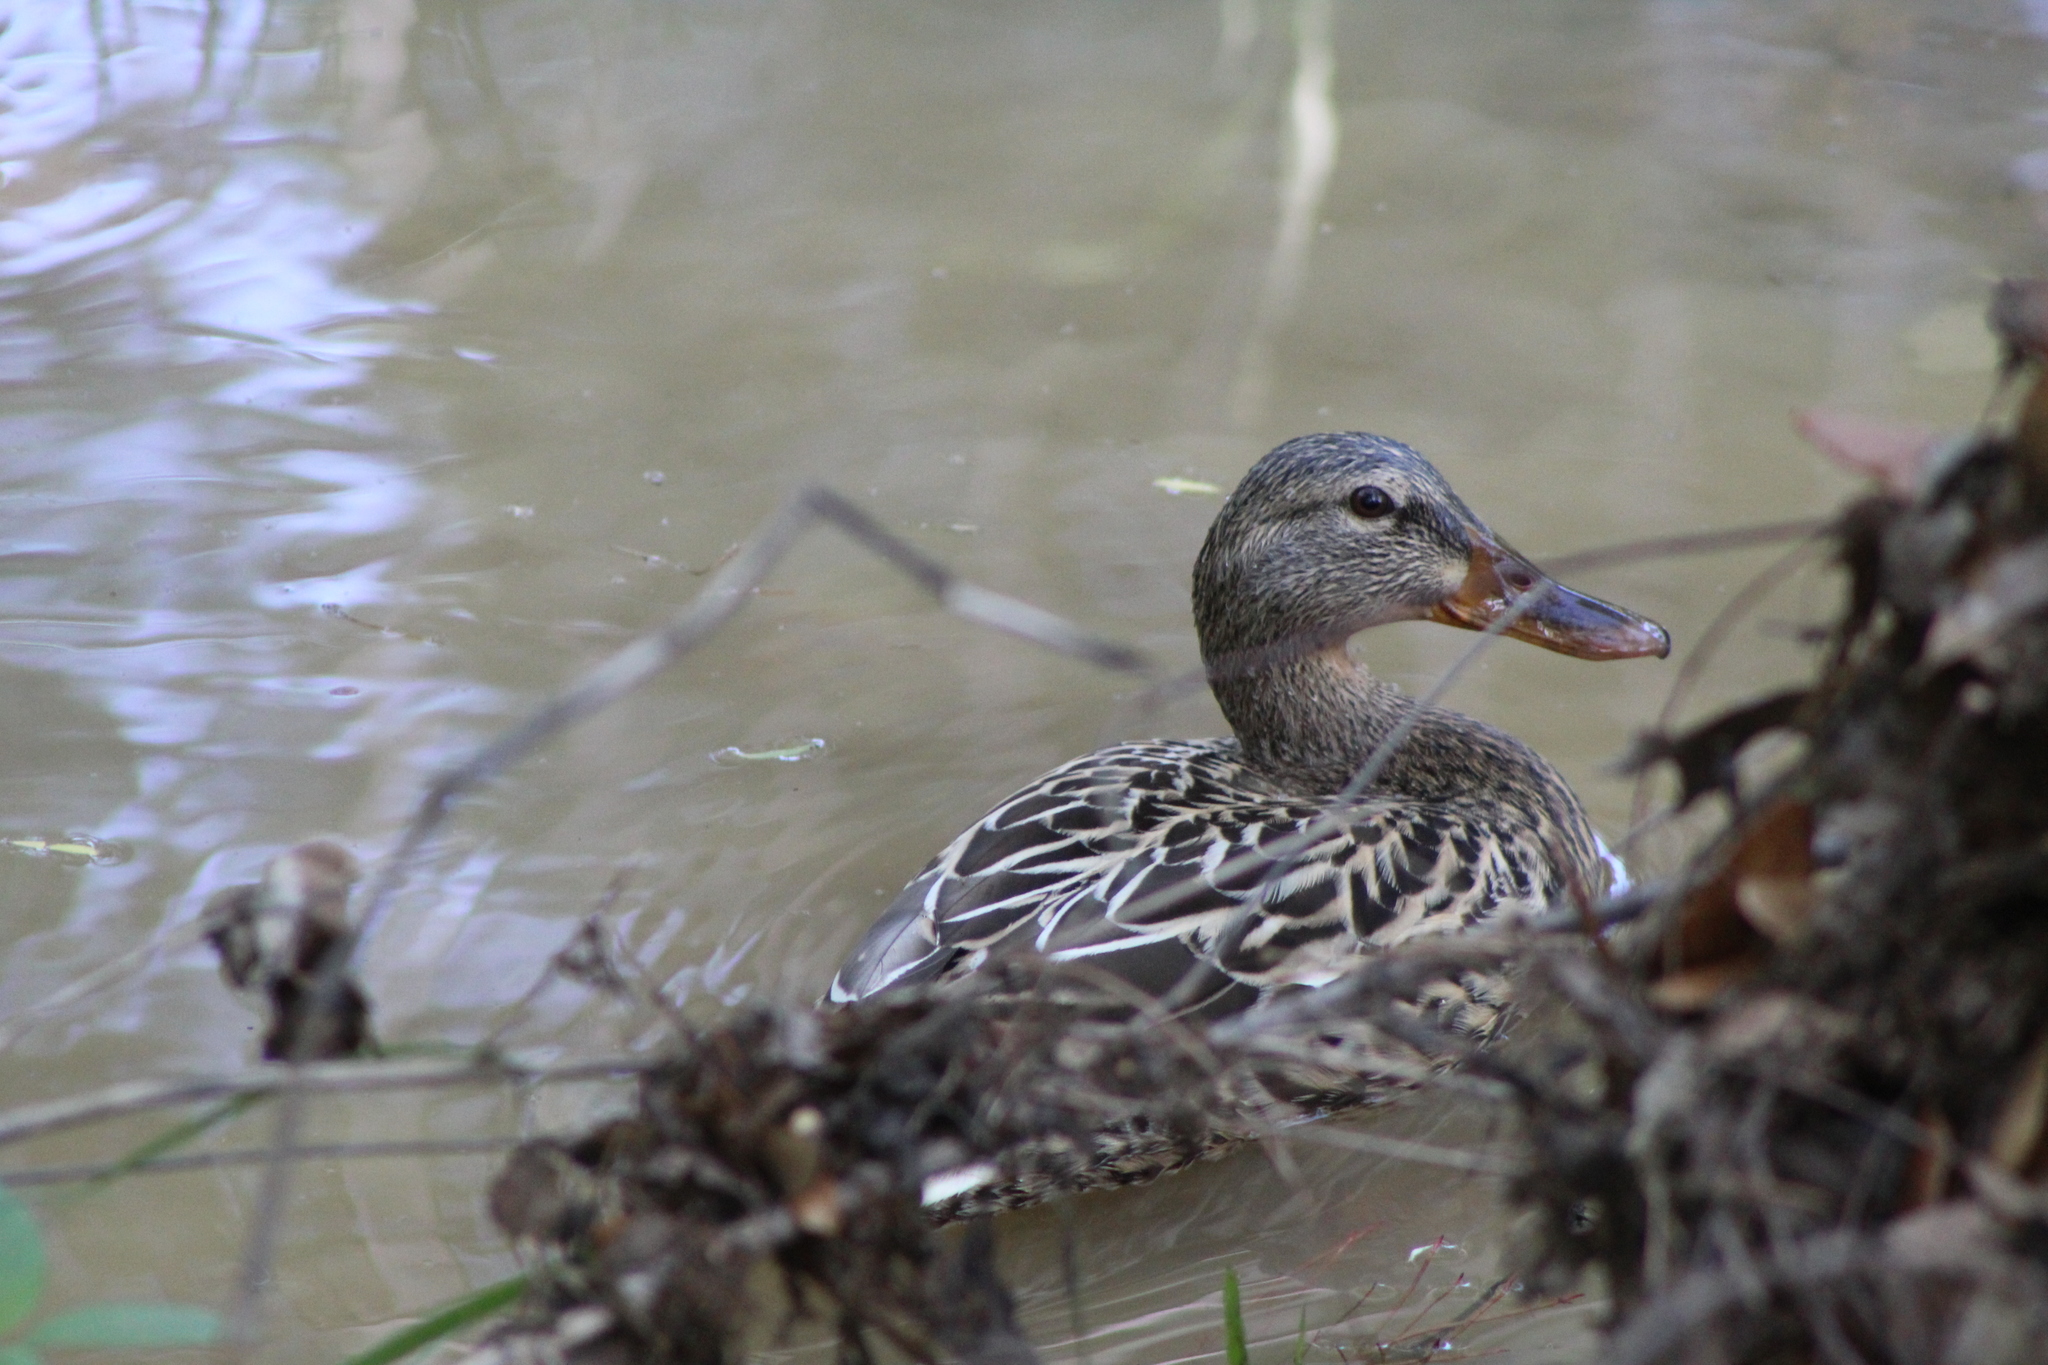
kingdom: Animalia
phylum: Chordata
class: Aves
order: Anseriformes
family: Anatidae
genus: Anas
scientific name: Anas platyrhynchos
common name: Mallard
